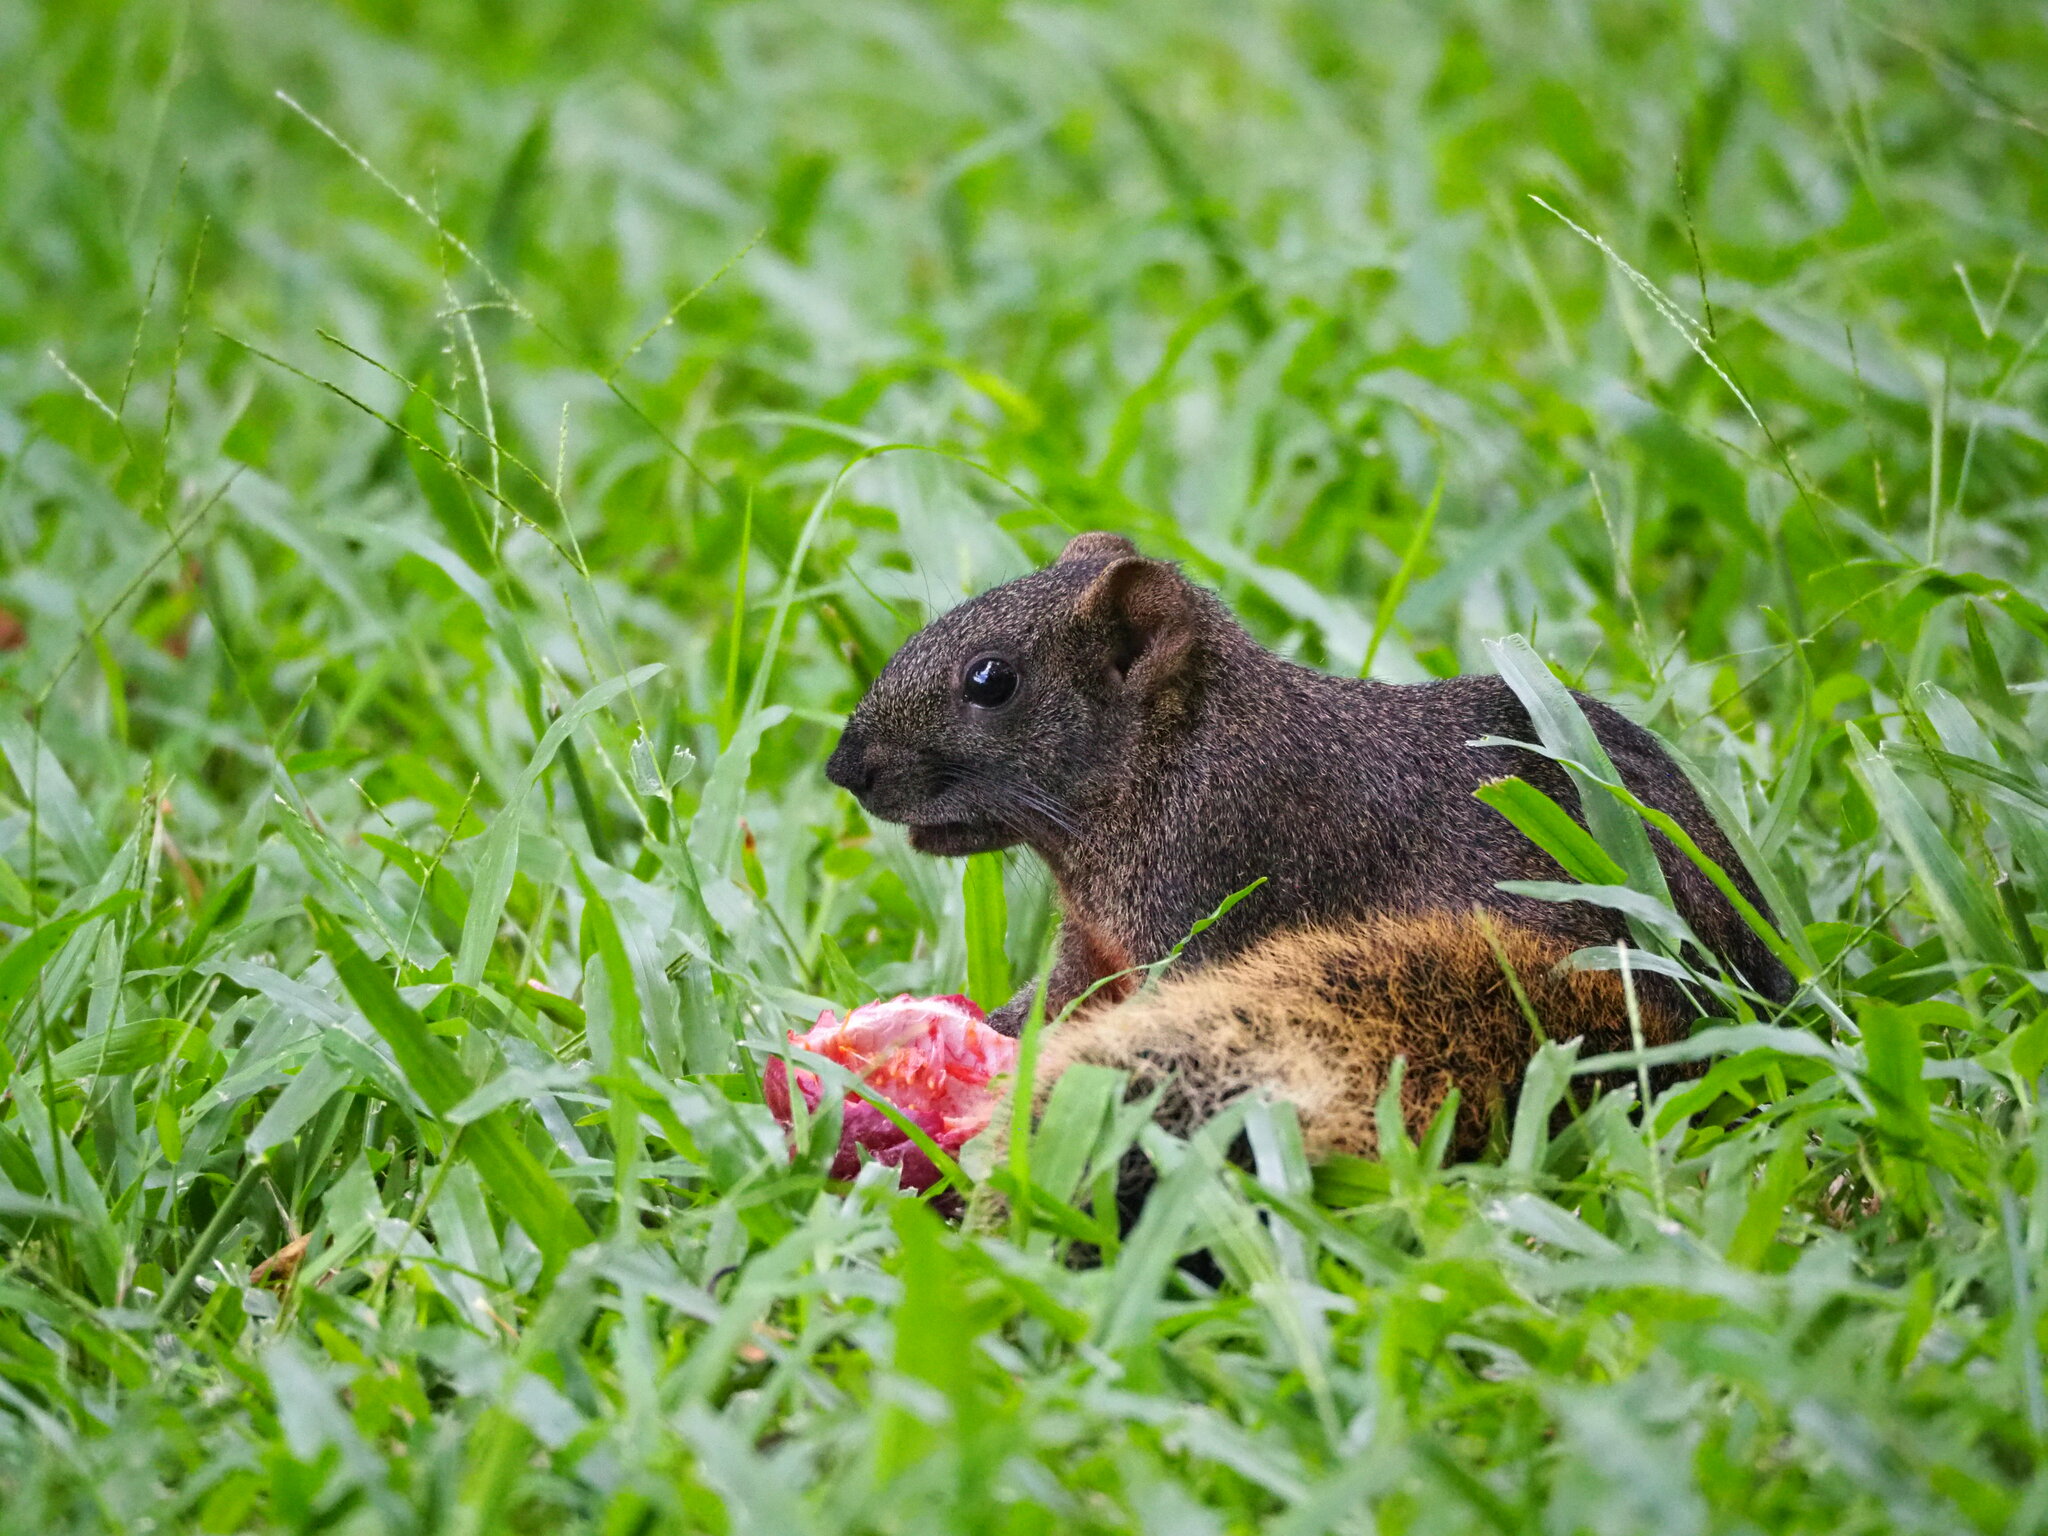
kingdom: Animalia
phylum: Chordata
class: Mammalia
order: Rodentia
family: Sciuridae
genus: Callosciurus
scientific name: Callosciurus erythraeus
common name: Pallas's squirrel
